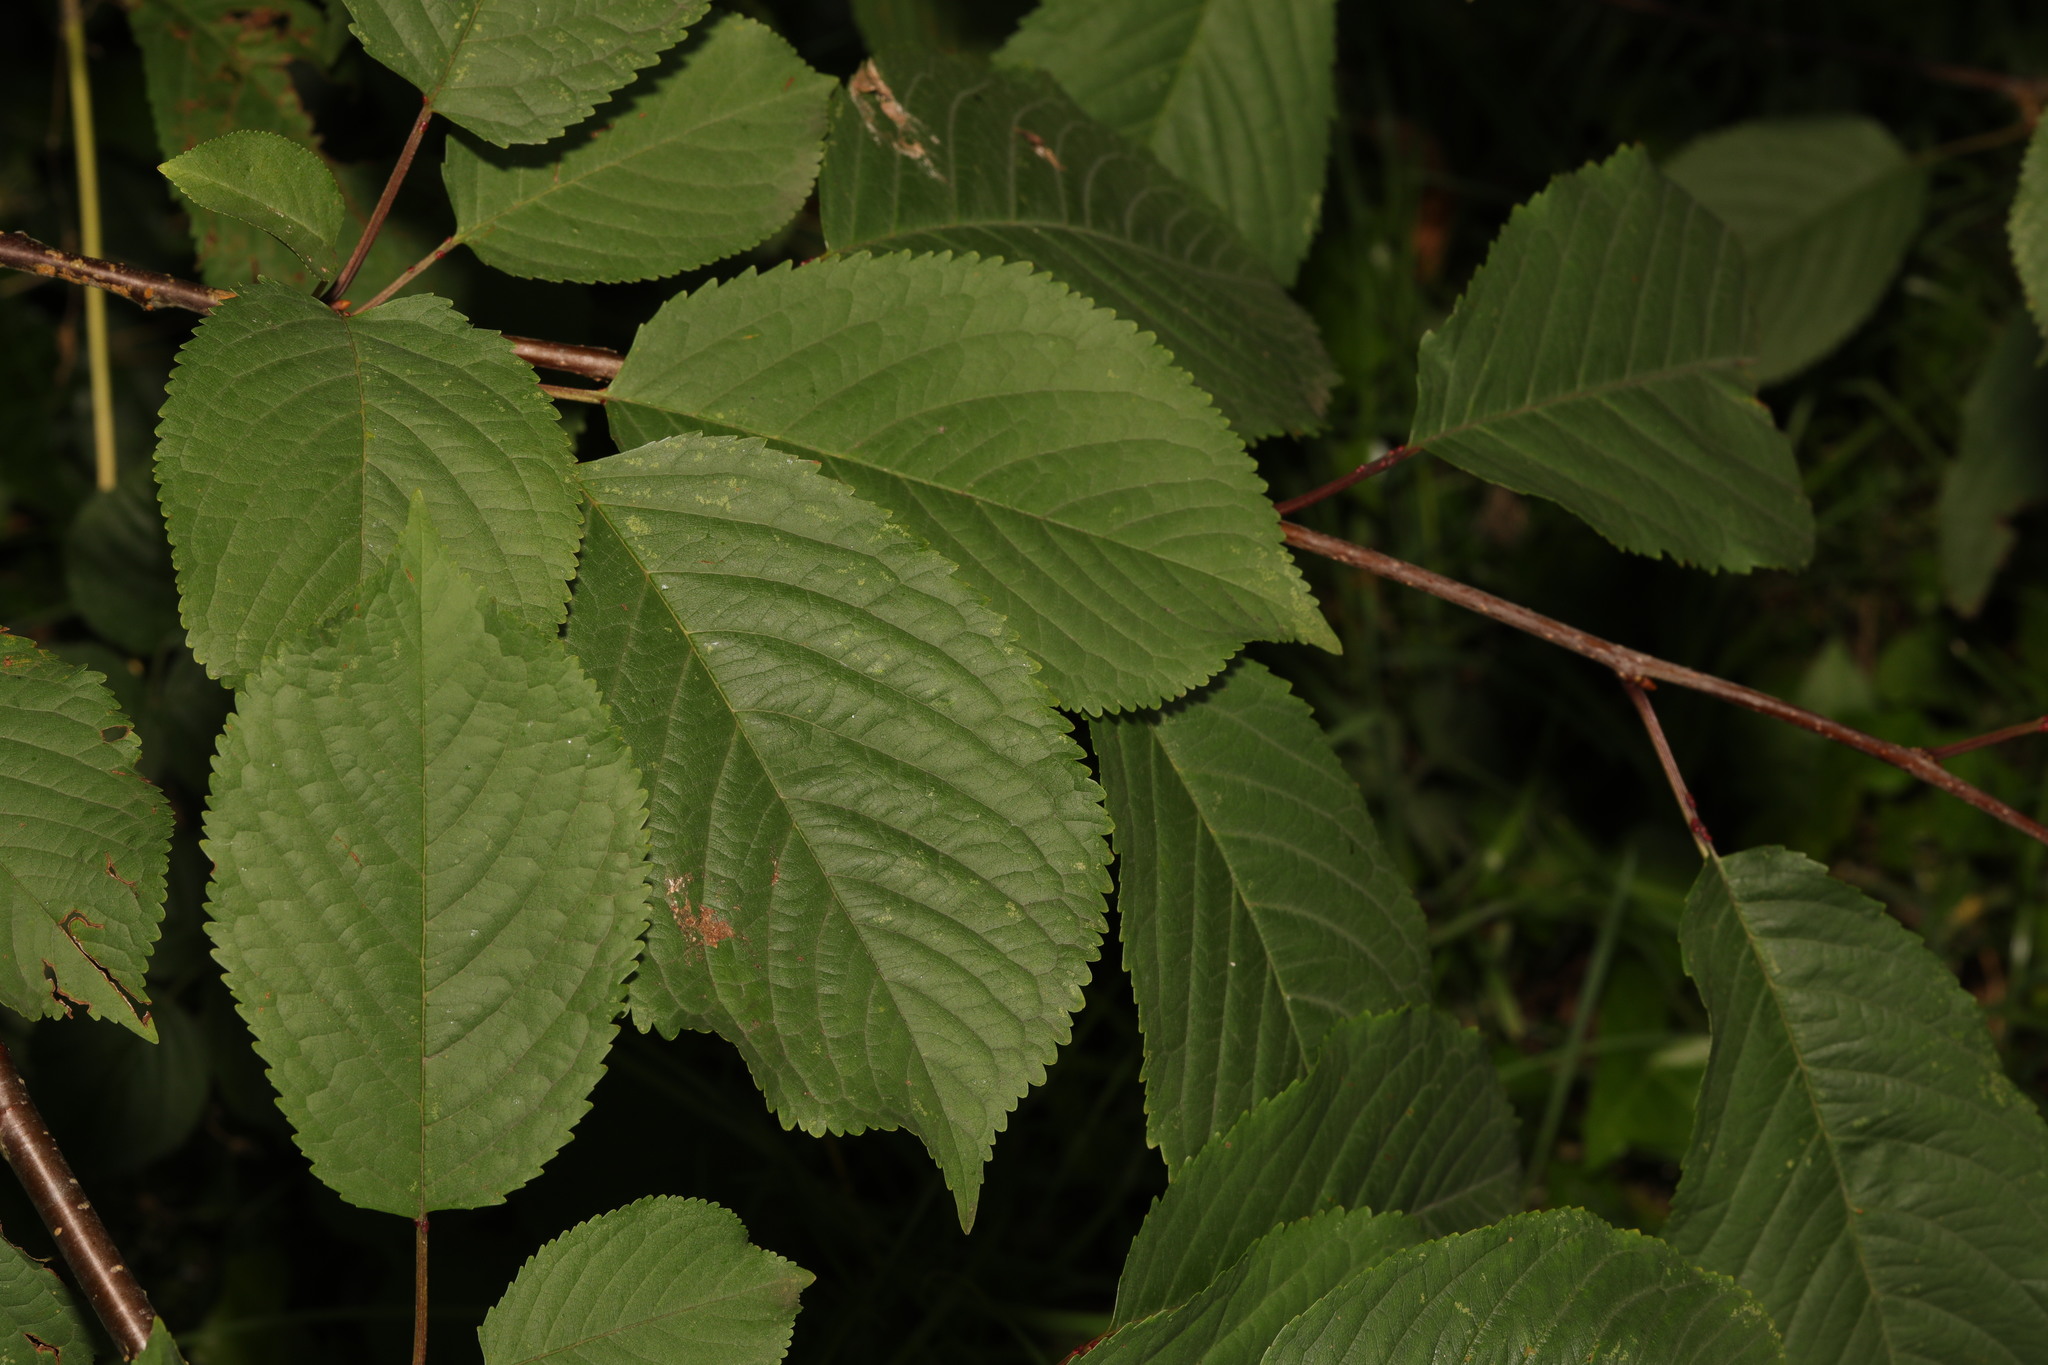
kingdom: Plantae
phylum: Tracheophyta
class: Magnoliopsida
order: Rosales
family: Rosaceae
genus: Prunus
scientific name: Prunus avium
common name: Sweet cherry
